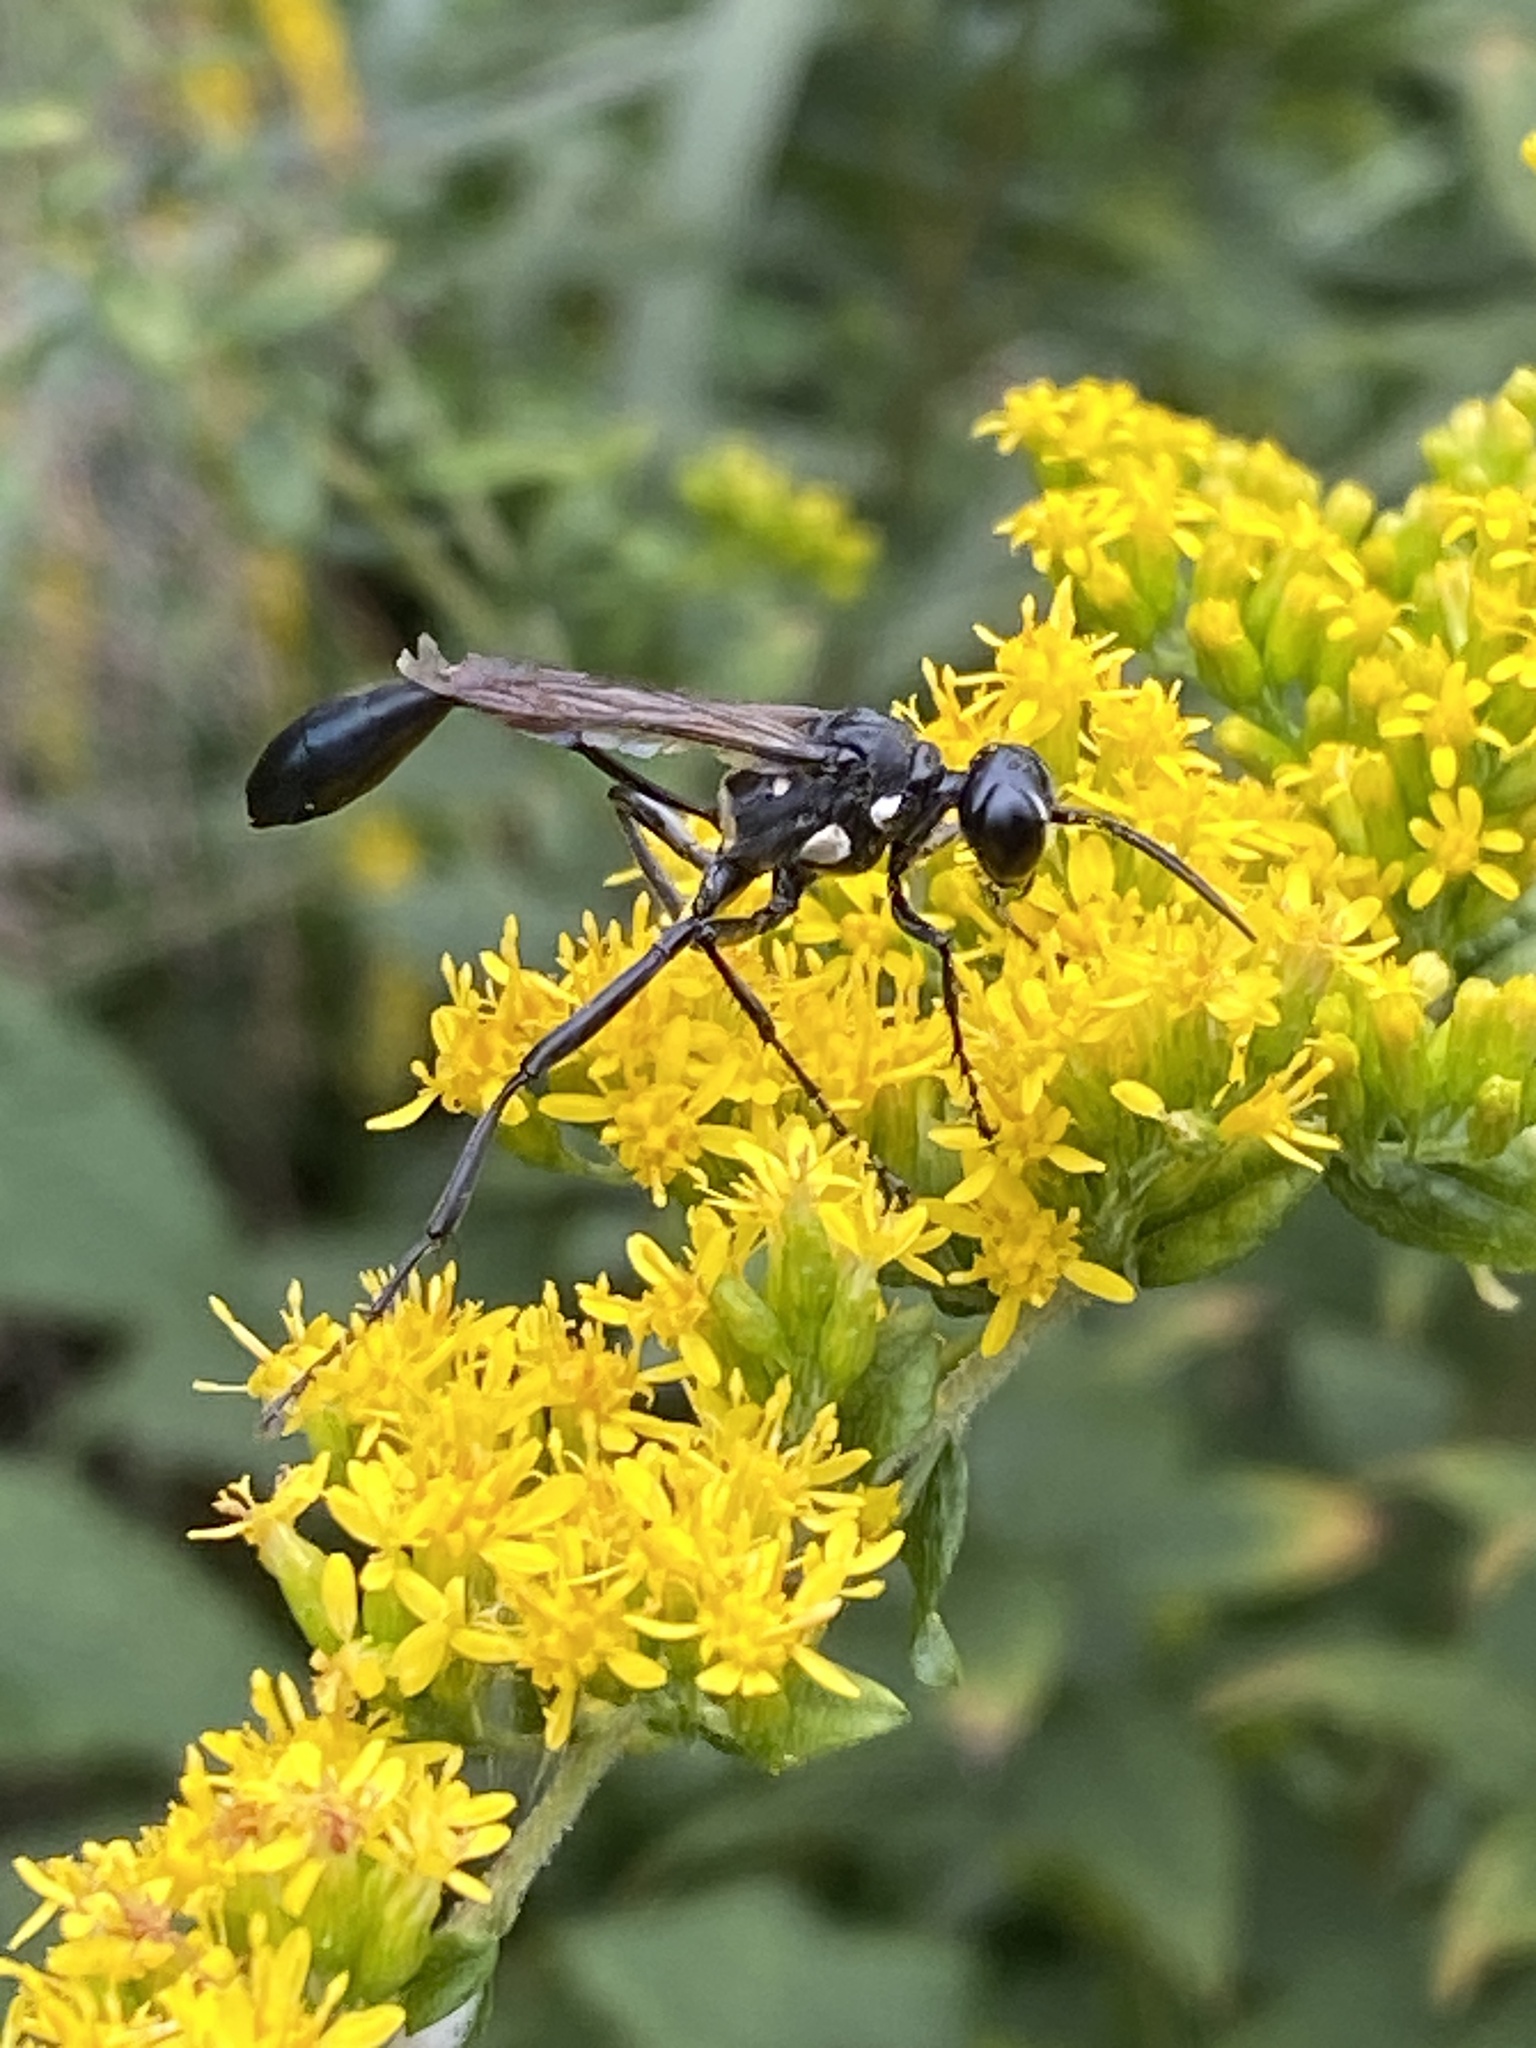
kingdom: Animalia
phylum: Arthropoda
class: Insecta
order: Hymenoptera
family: Sphecidae
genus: Eremnophila
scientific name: Eremnophila aureonotata
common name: Gold-marked thread-waisted wasp
